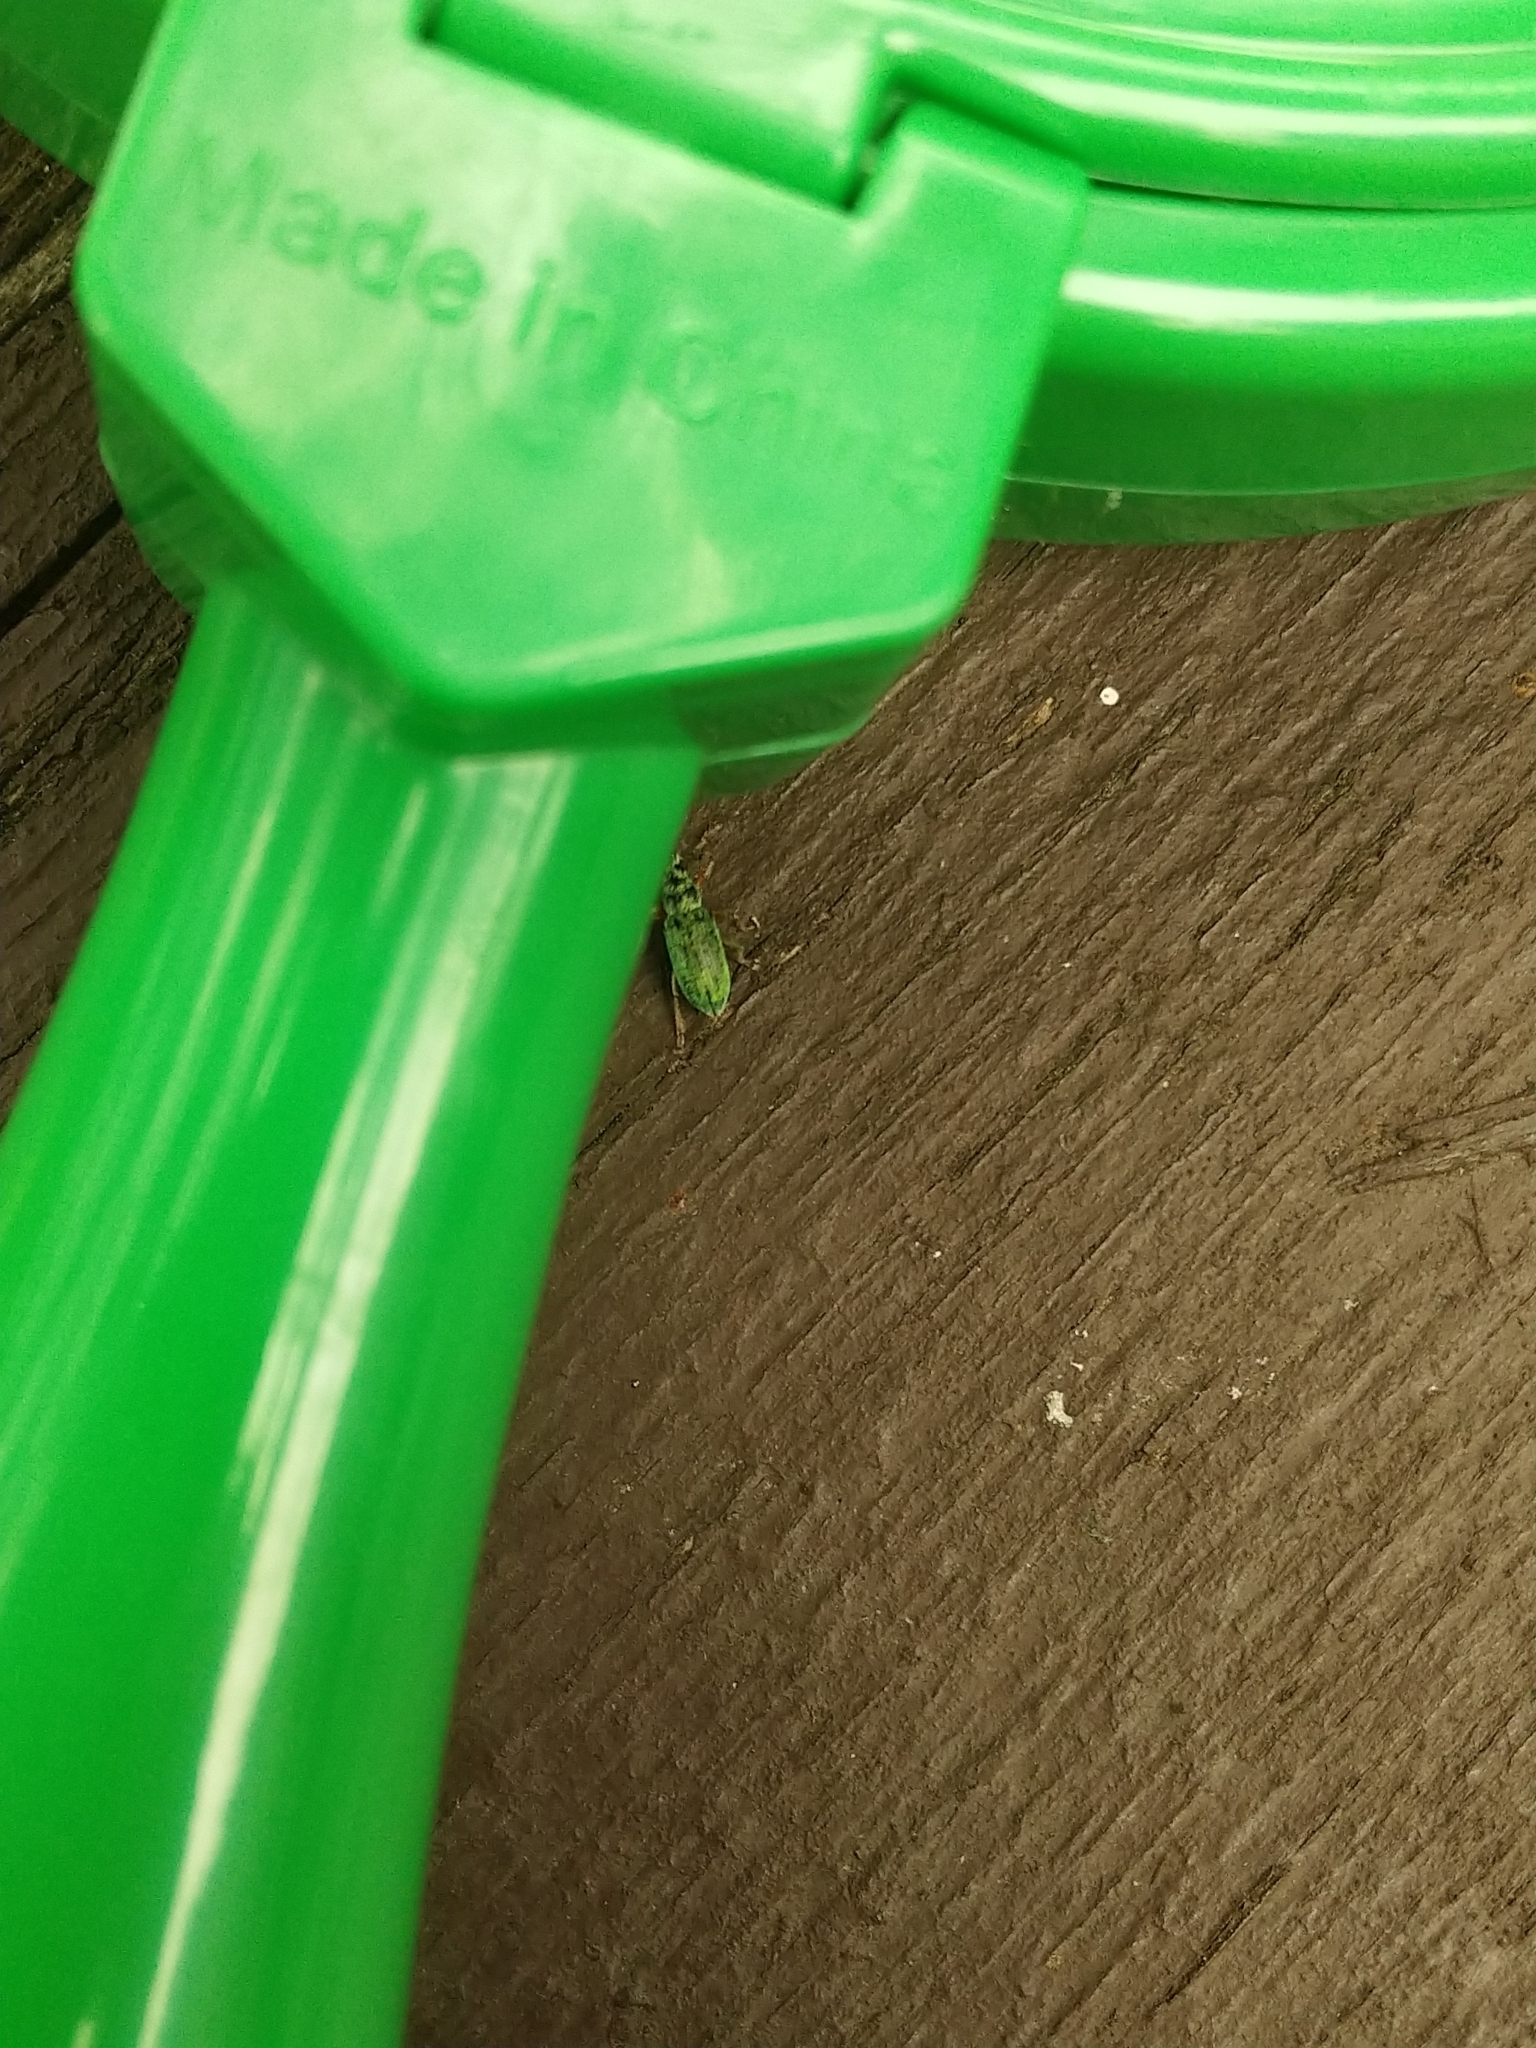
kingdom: Animalia
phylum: Arthropoda
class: Insecta
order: Coleoptera
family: Curculionidae
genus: Polydrusus
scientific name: Polydrusus formosus
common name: Weevil
